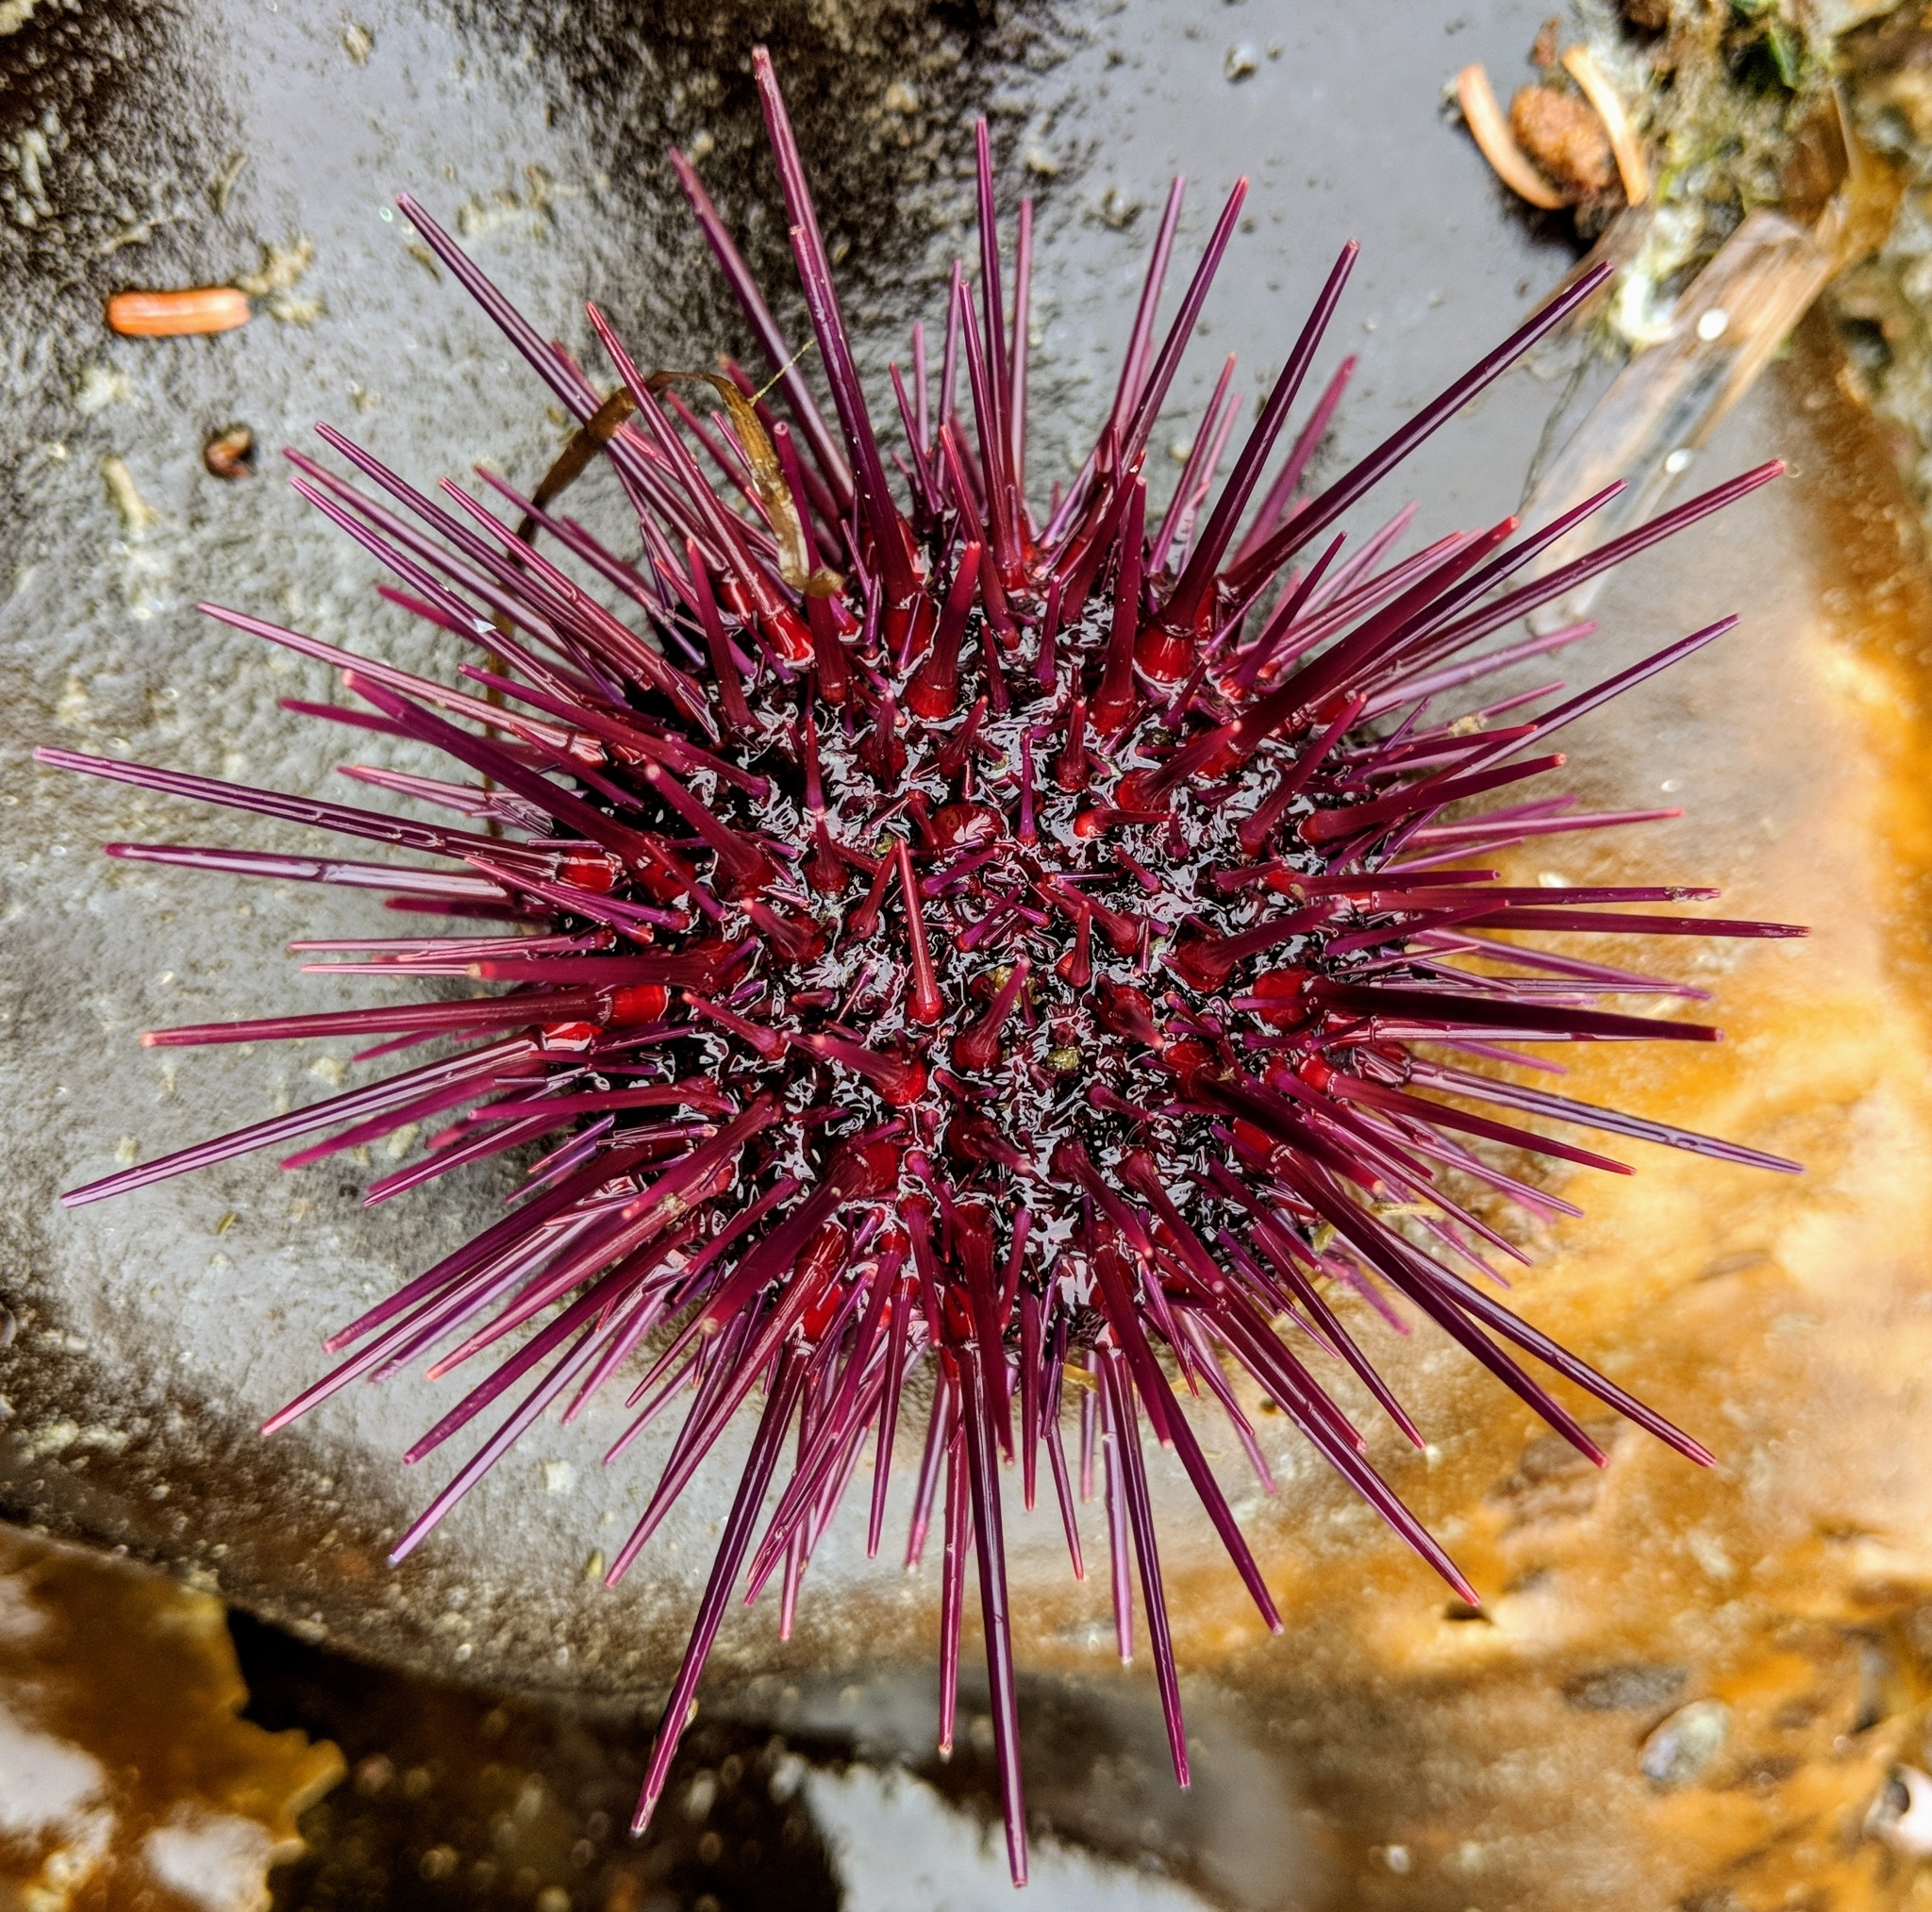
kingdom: Animalia
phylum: Echinodermata
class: Echinoidea
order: Camarodonta
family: Strongylocentrotidae
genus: Mesocentrotus
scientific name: Mesocentrotus franciscanus
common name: Red sea urchin
